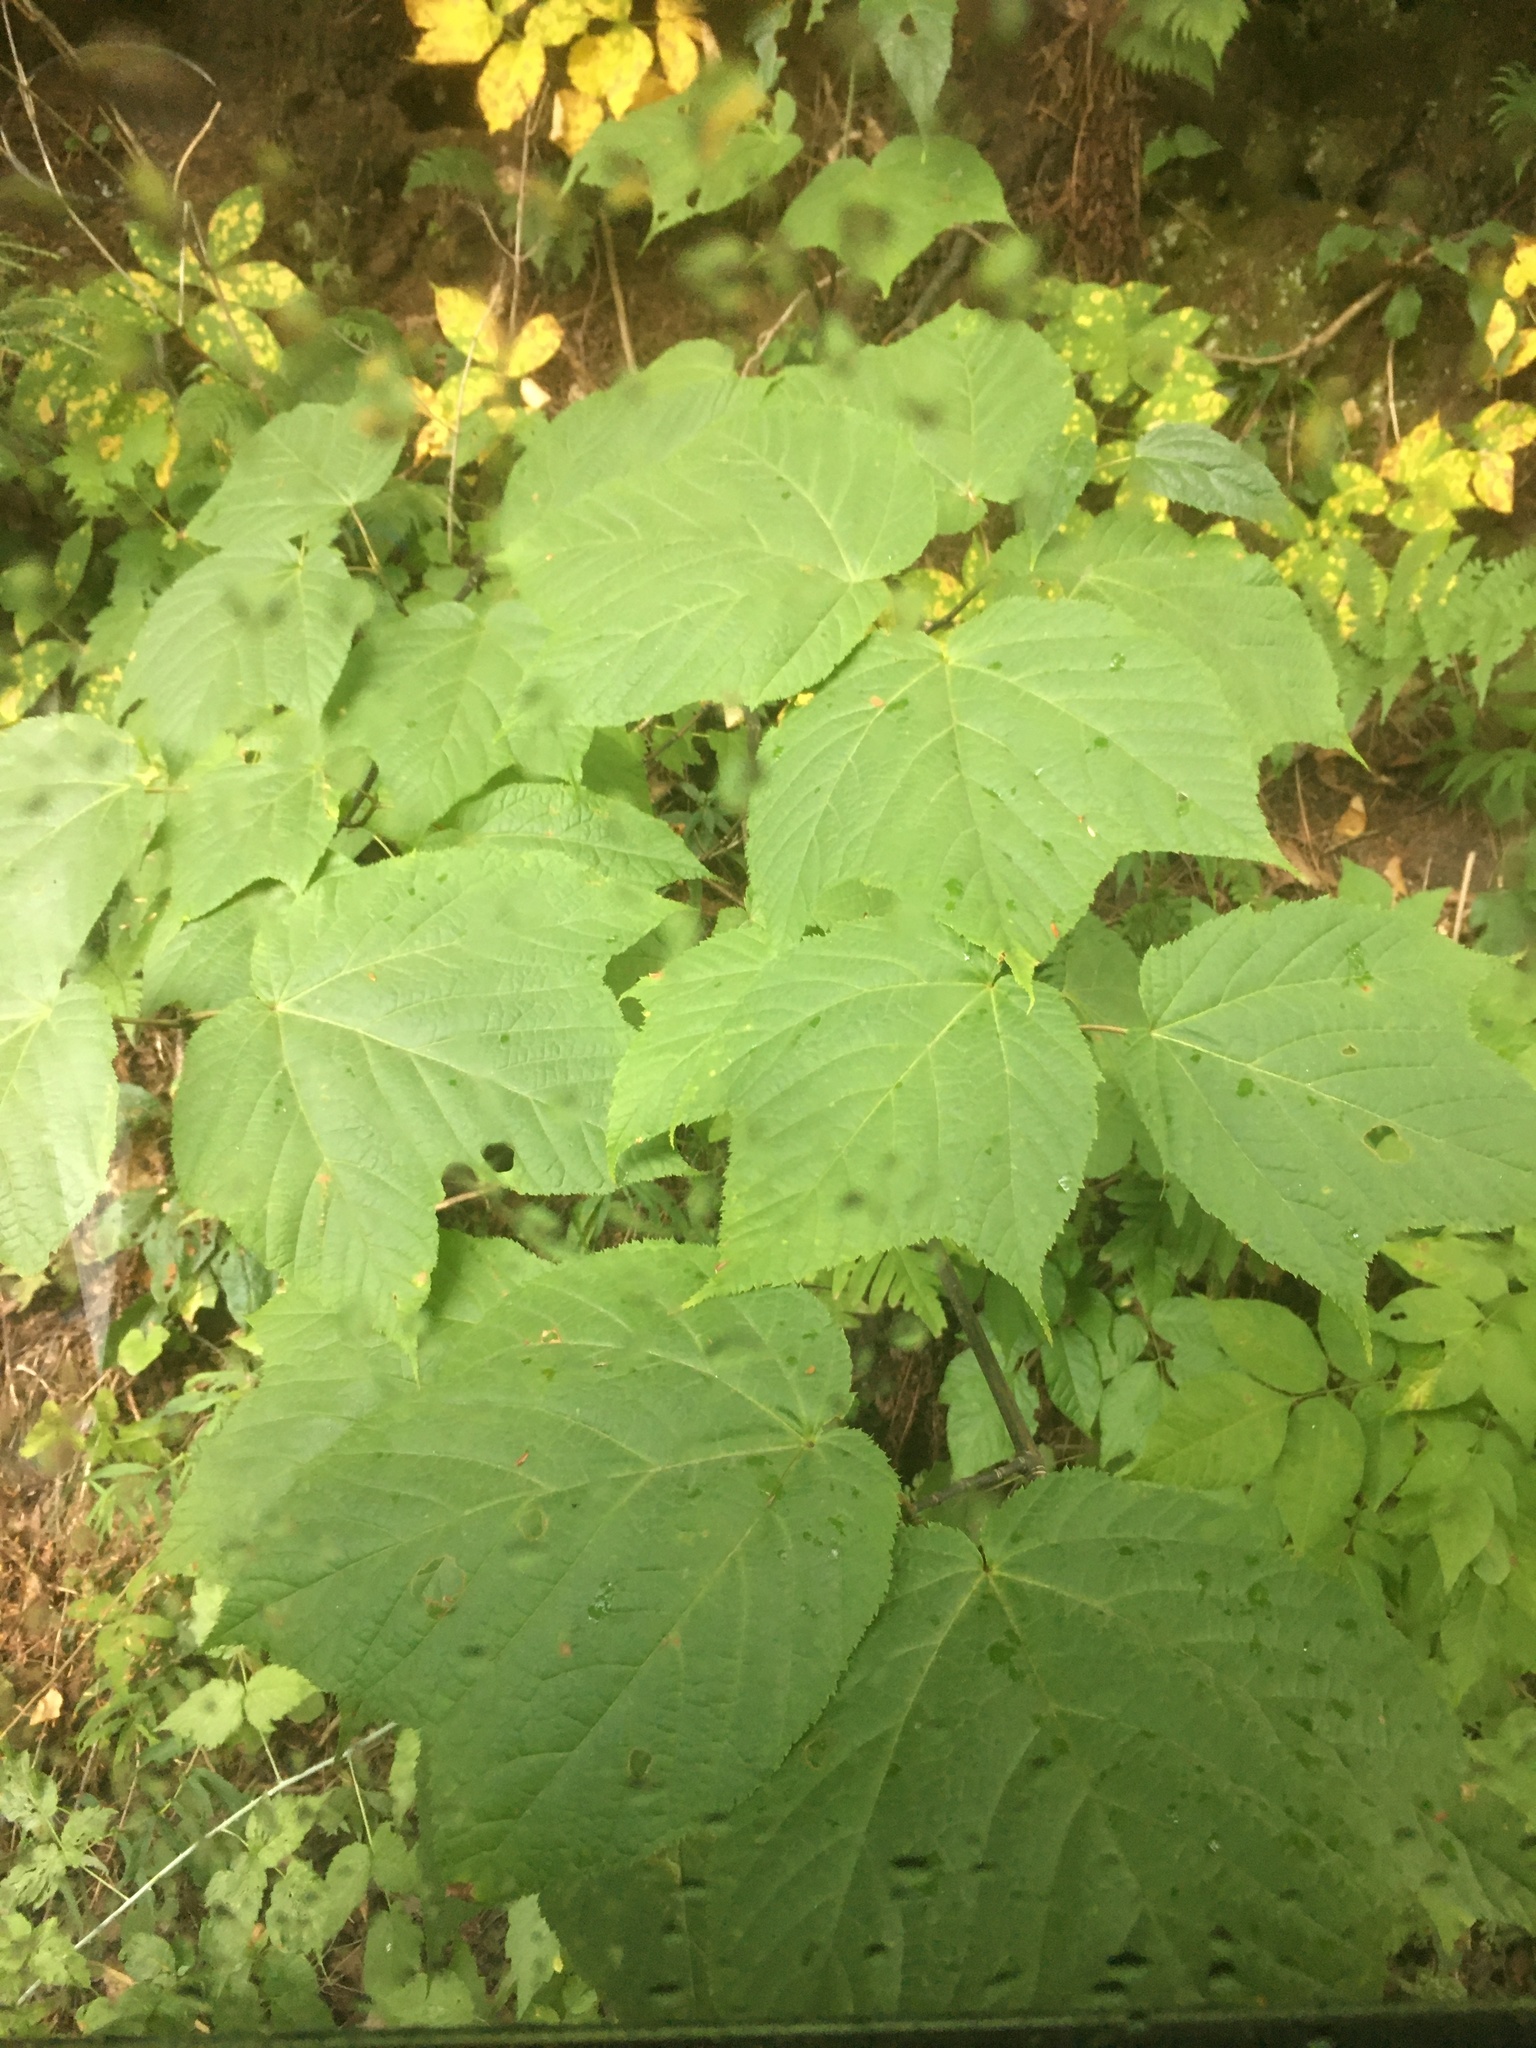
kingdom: Plantae
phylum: Tracheophyta
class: Magnoliopsida
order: Sapindales
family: Sapindaceae
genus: Acer
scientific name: Acer pensylvanicum
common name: Moosewood
